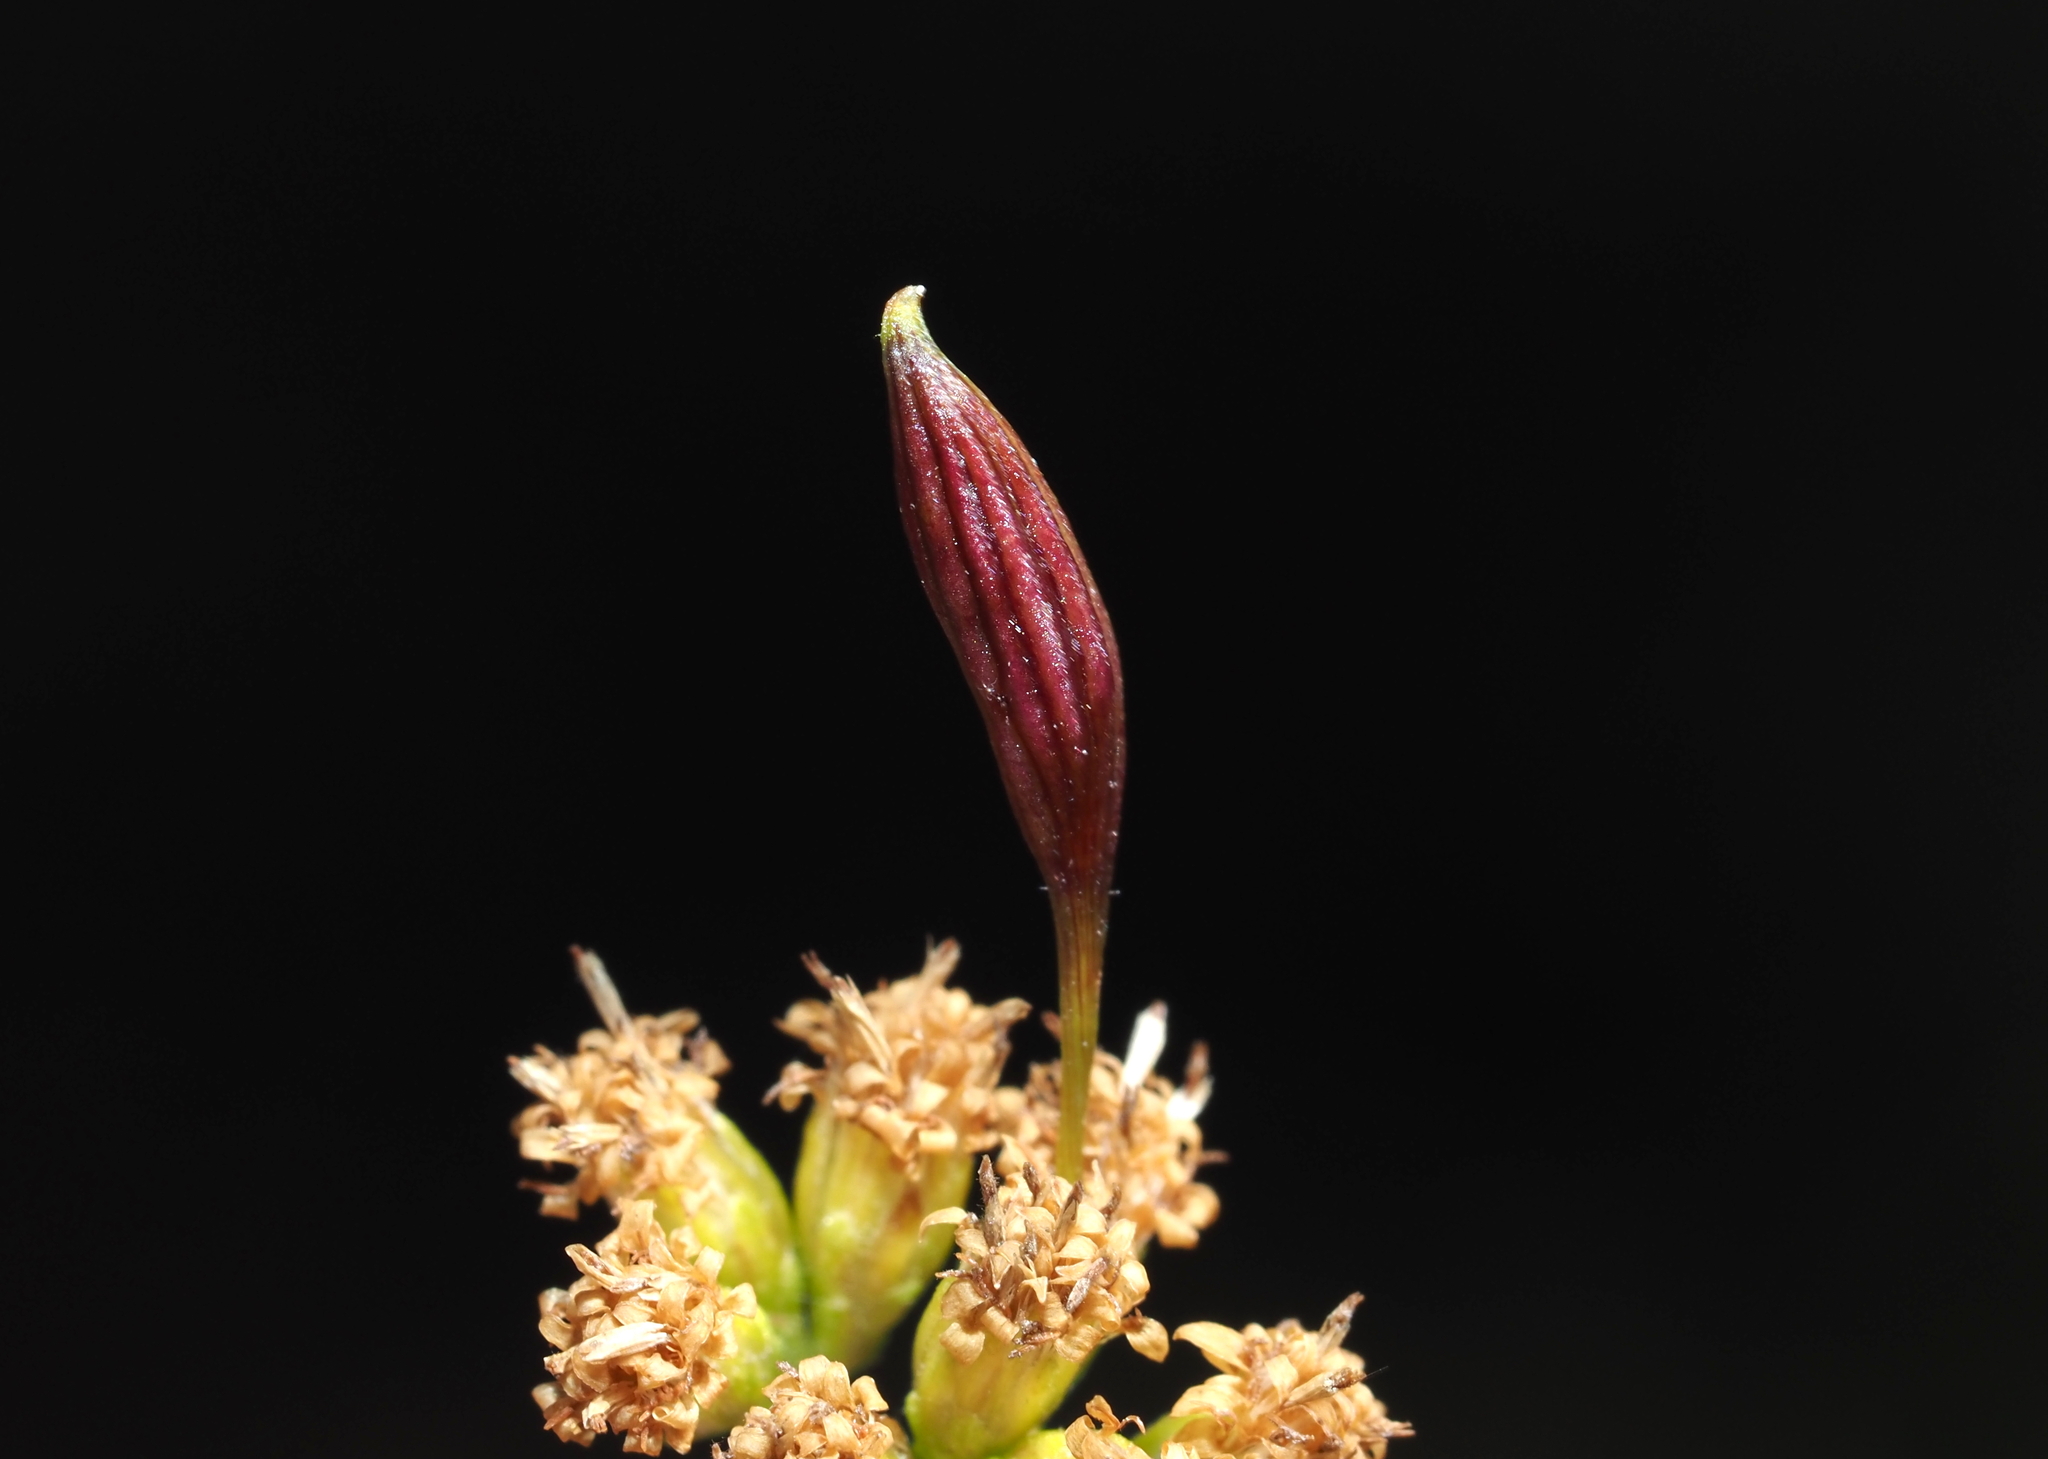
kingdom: Animalia
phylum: Arthropoda
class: Insecta
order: Diptera
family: Cecidomyiidae
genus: Rhopalomyia
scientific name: Rhopalomyia pedicellata
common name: Goldentop pedicellate gall midge
